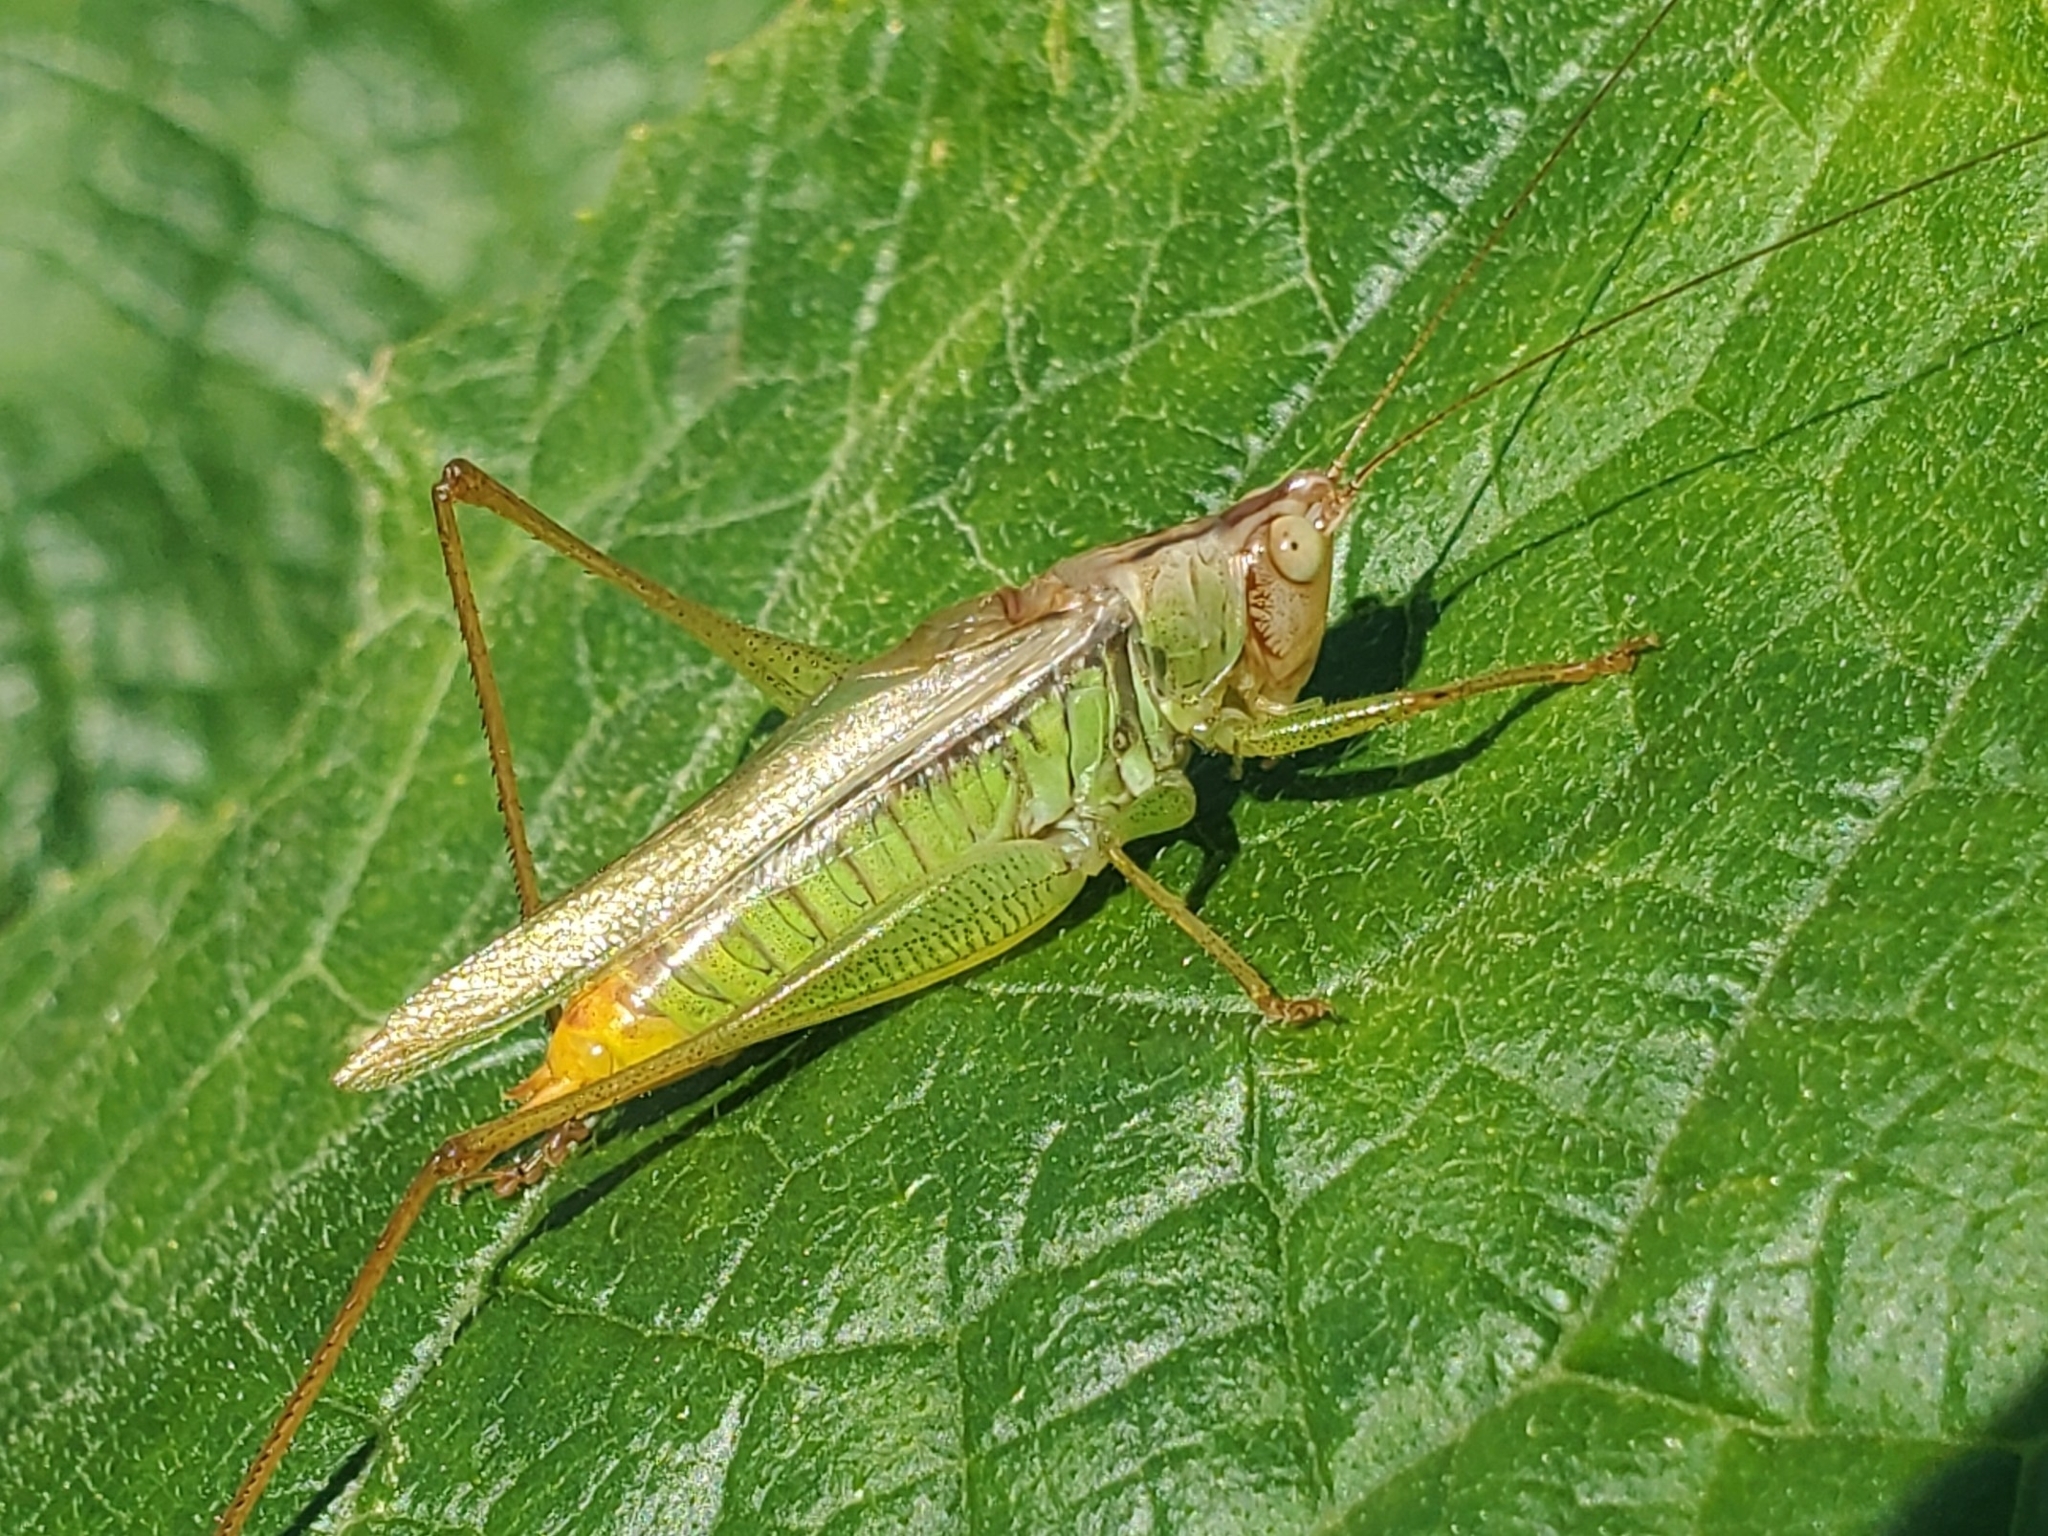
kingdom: Animalia
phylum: Arthropoda
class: Insecta
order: Orthoptera
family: Tettigoniidae
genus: Orchelimum
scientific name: Orchelimum agilis
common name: Agile meadow grasshopper
